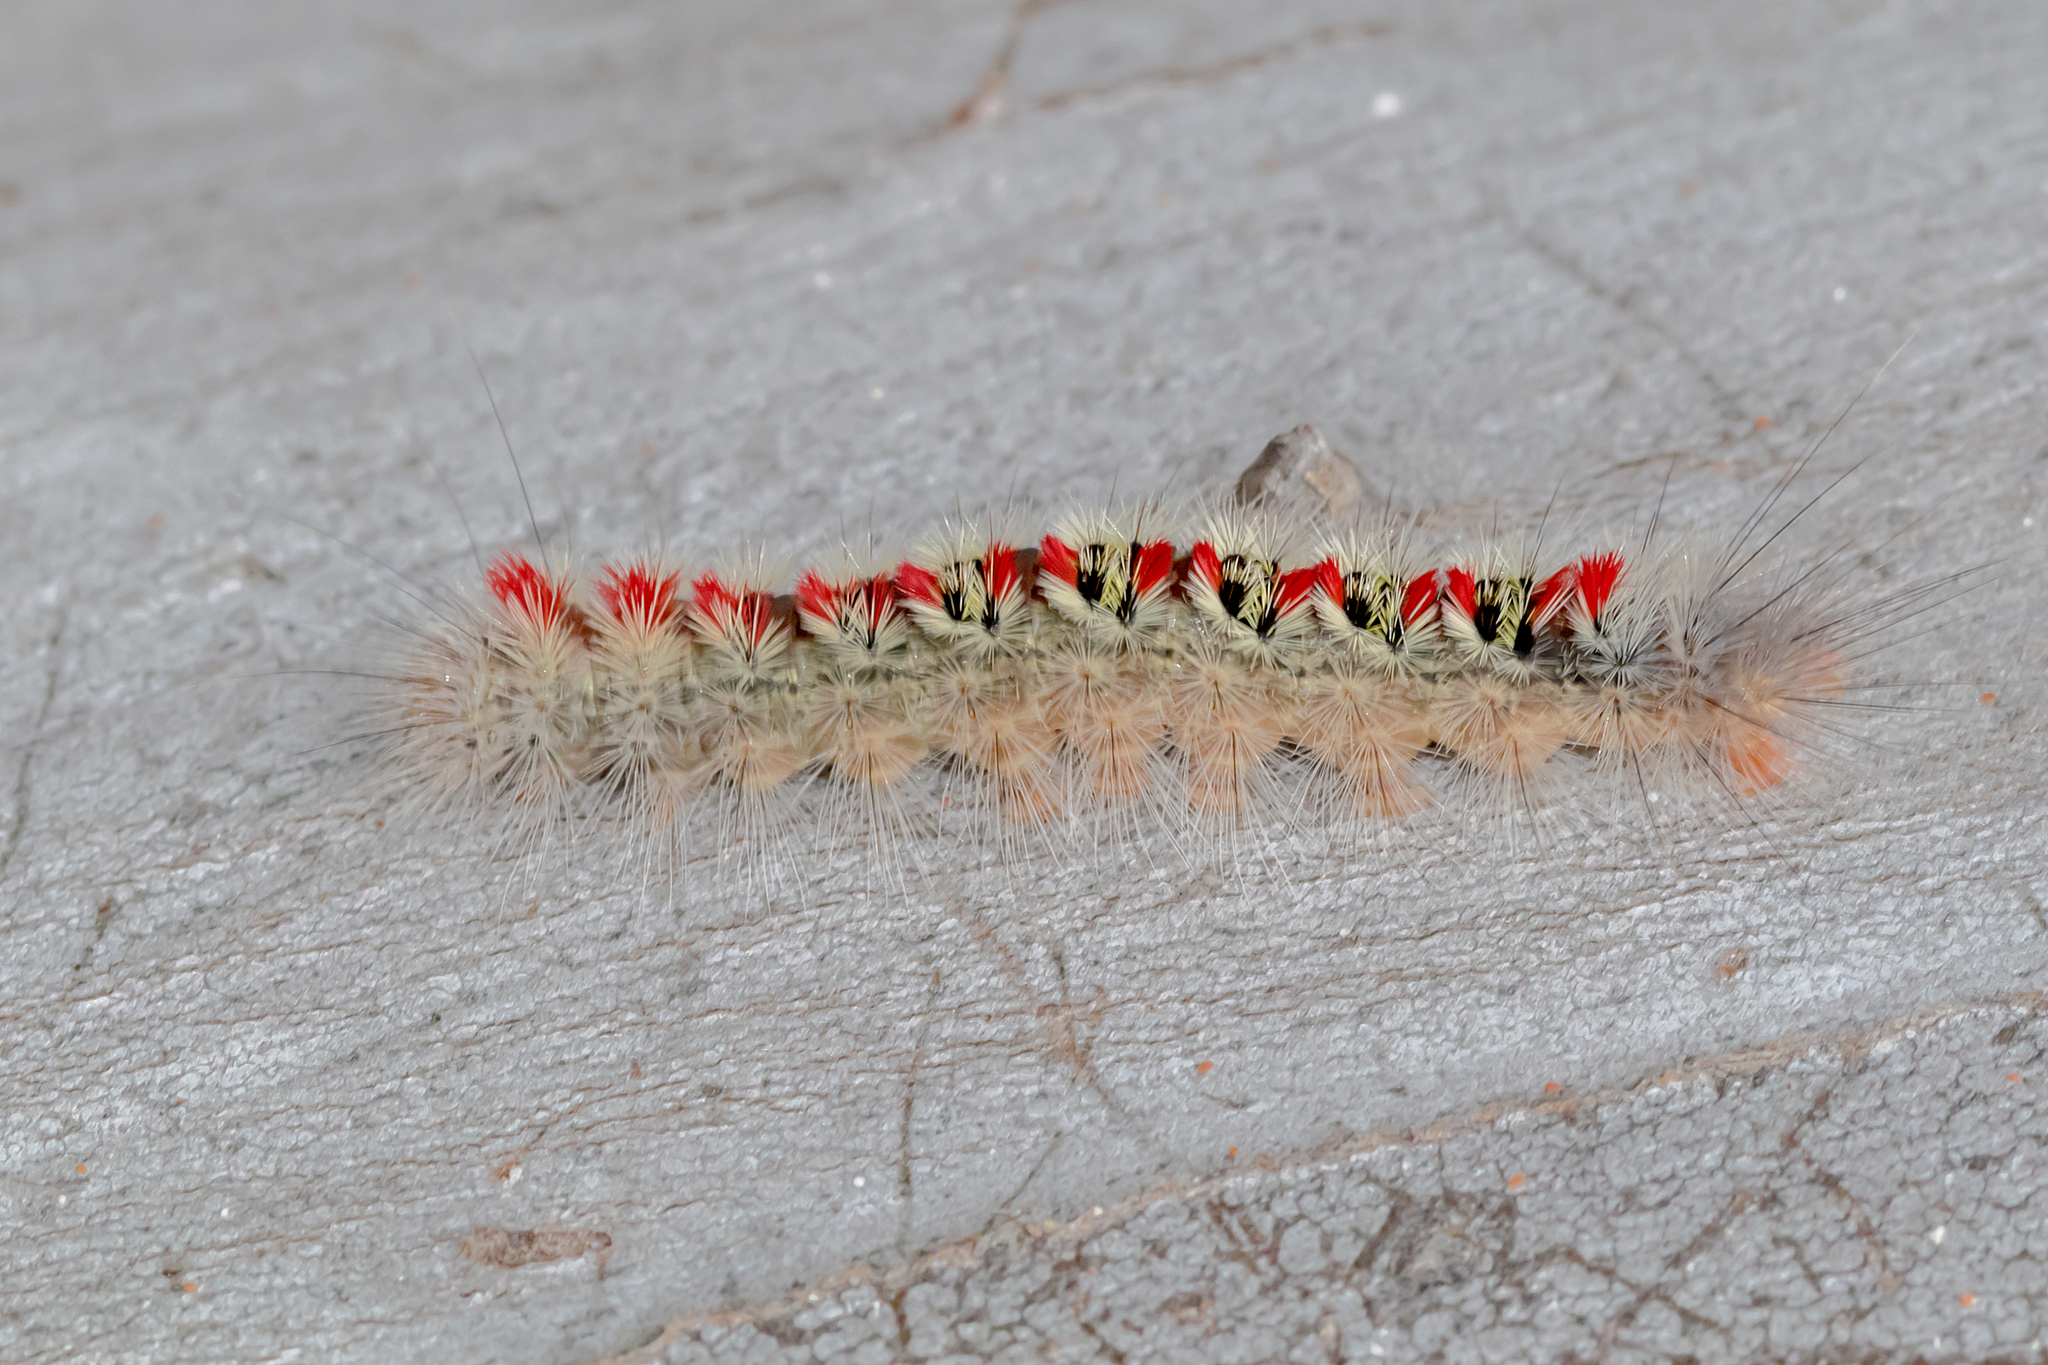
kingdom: Animalia
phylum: Arthropoda
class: Insecta
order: Lepidoptera
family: Notodontidae
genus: Trichiocercus
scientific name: Trichiocercus sparshalli
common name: Long-tailed satin
